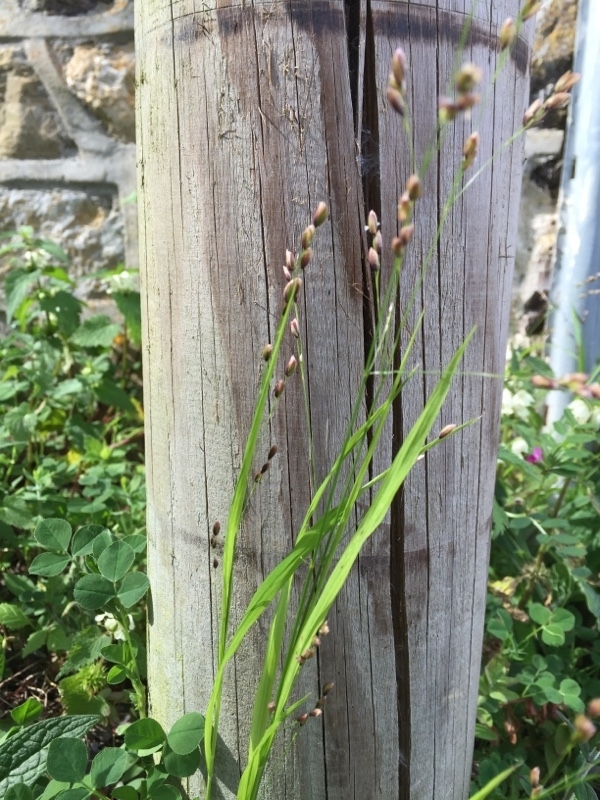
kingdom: Plantae
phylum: Tracheophyta
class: Liliopsida
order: Poales
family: Poaceae
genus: Melica
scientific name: Melica uniflora
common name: Wood melick
